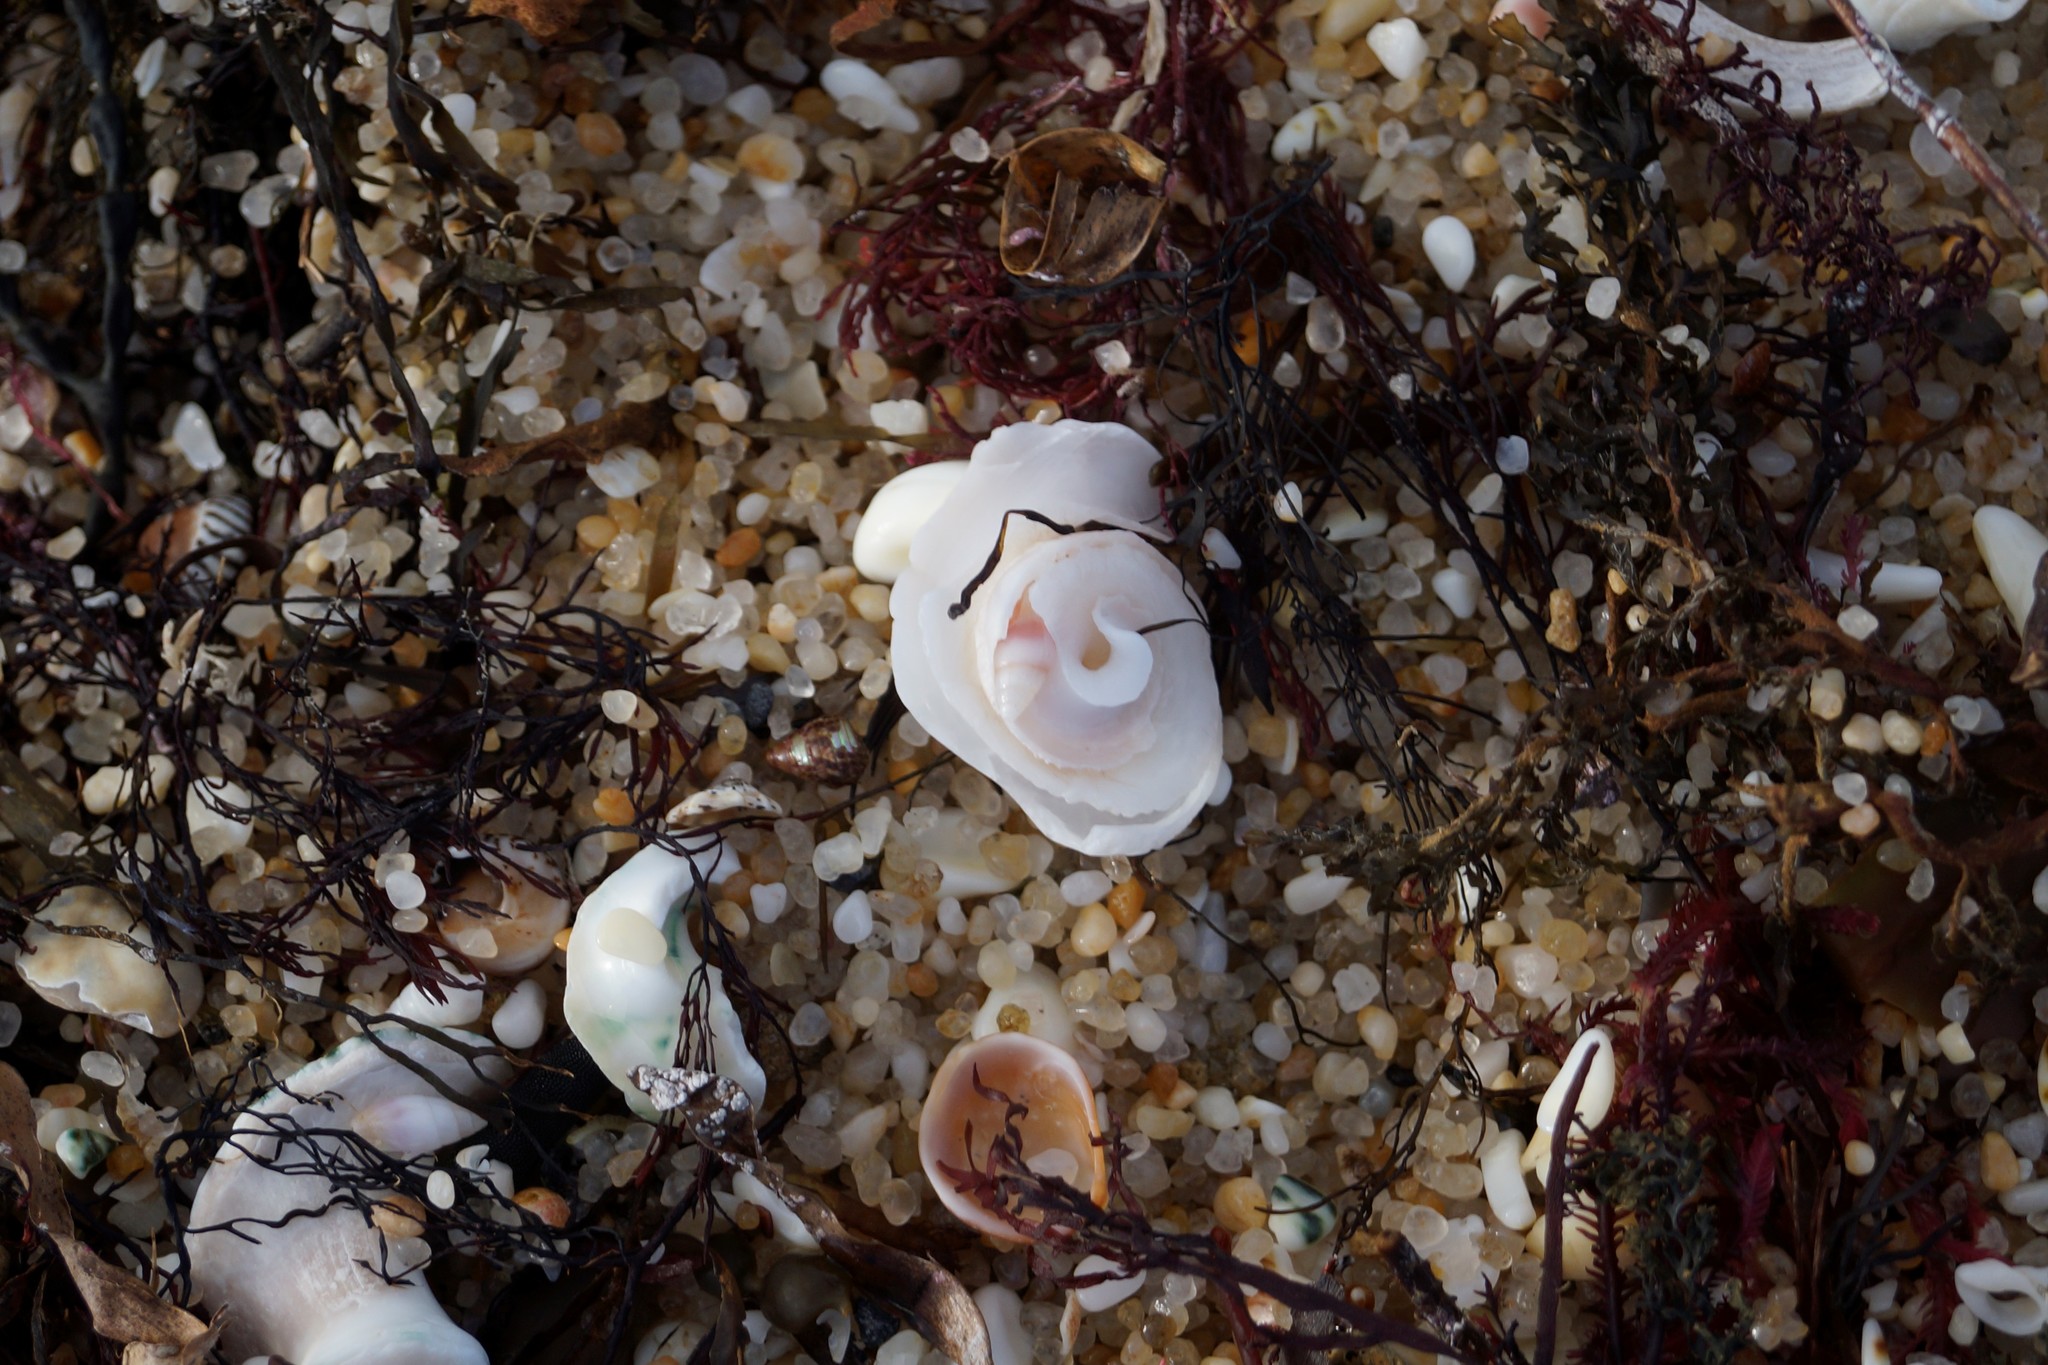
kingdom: Animalia
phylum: Mollusca
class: Gastropoda
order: Littorinimorpha
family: Vermetidae
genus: Thylacodes
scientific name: Thylacodes sipho
